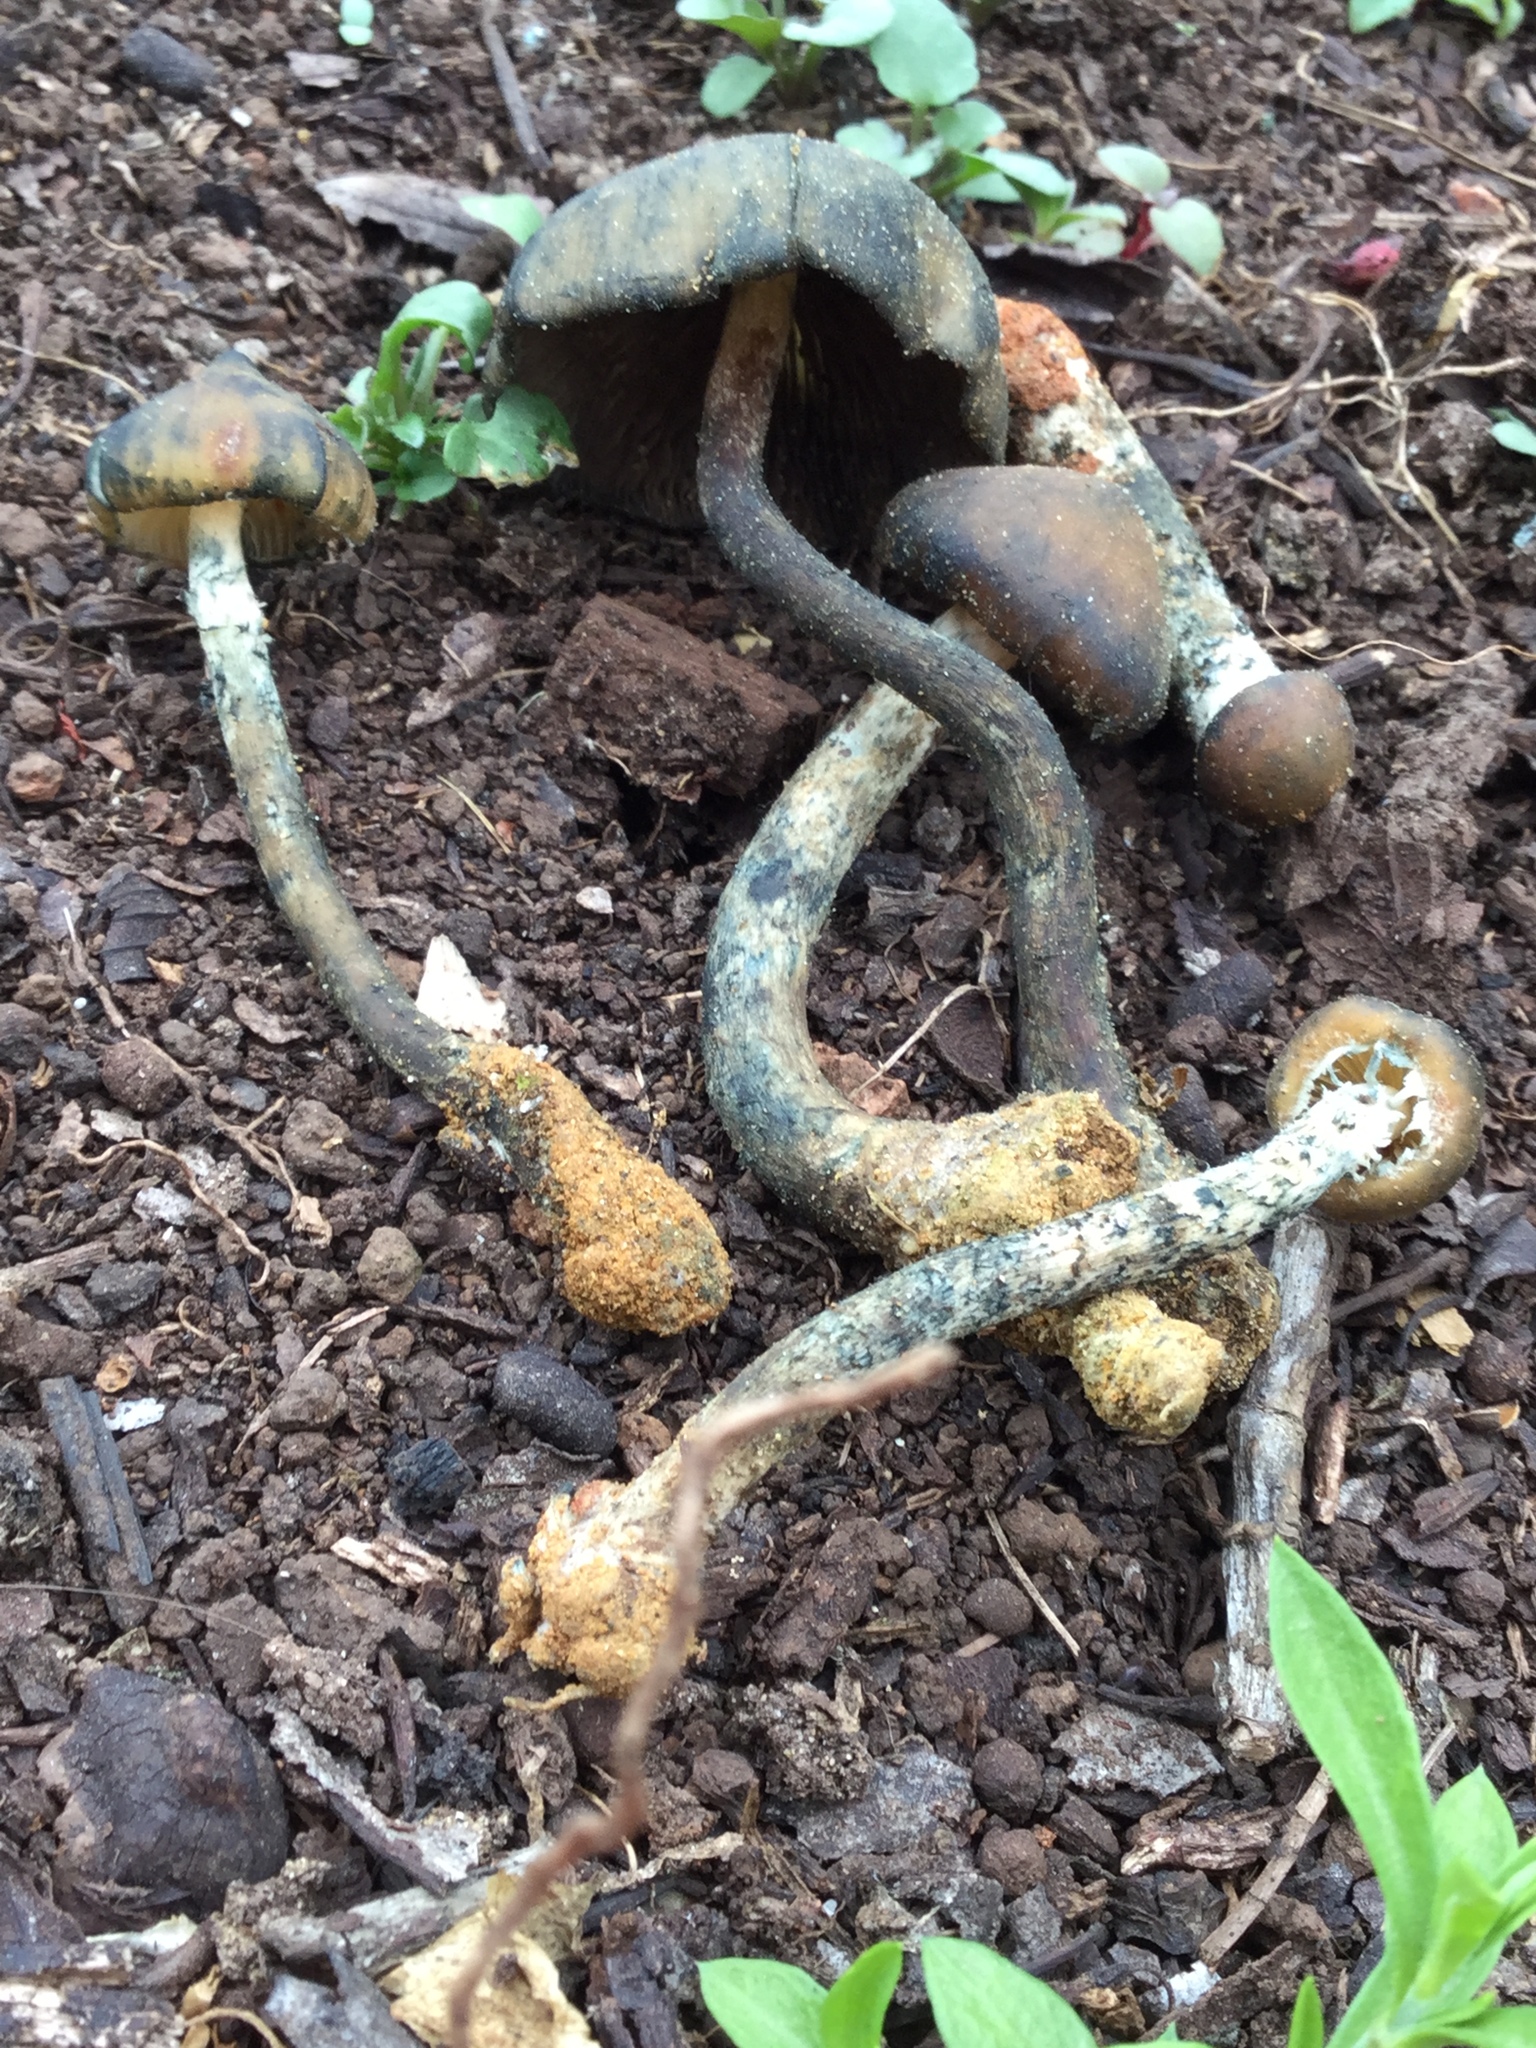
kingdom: Fungi
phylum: Basidiomycota
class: Agaricomycetes
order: Agaricales
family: Hymenogastraceae
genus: Psilocybe
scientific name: Psilocybe zapotecorum
